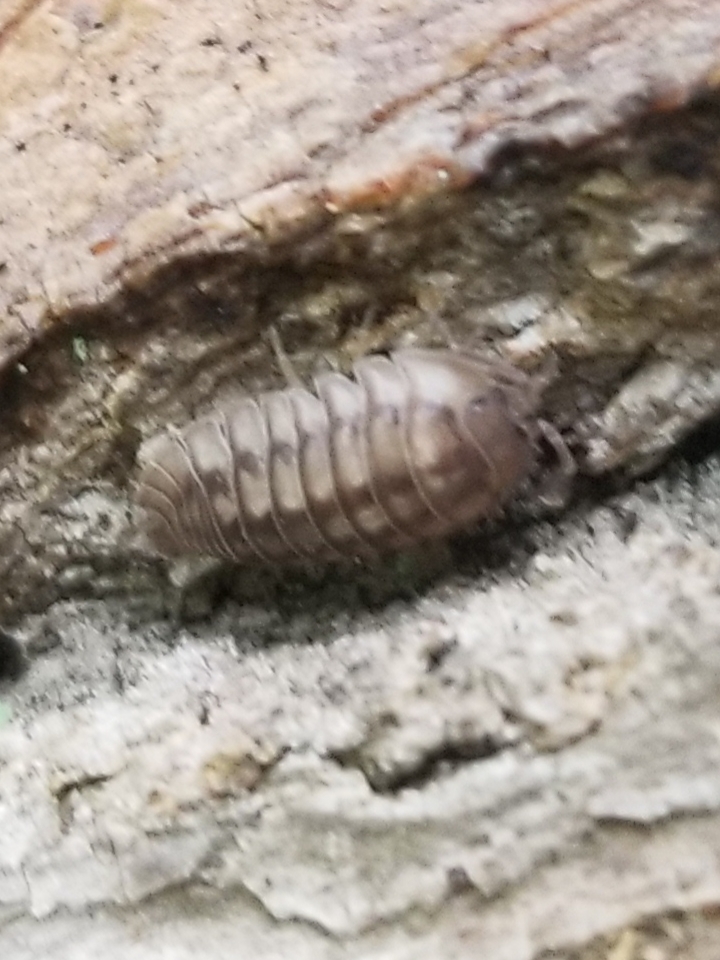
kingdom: Animalia
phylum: Arthropoda
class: Malacostraca
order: Isopoda
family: Armadillidiidae
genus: Armadillidium
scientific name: Armadillidium nasatum
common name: Isopod
